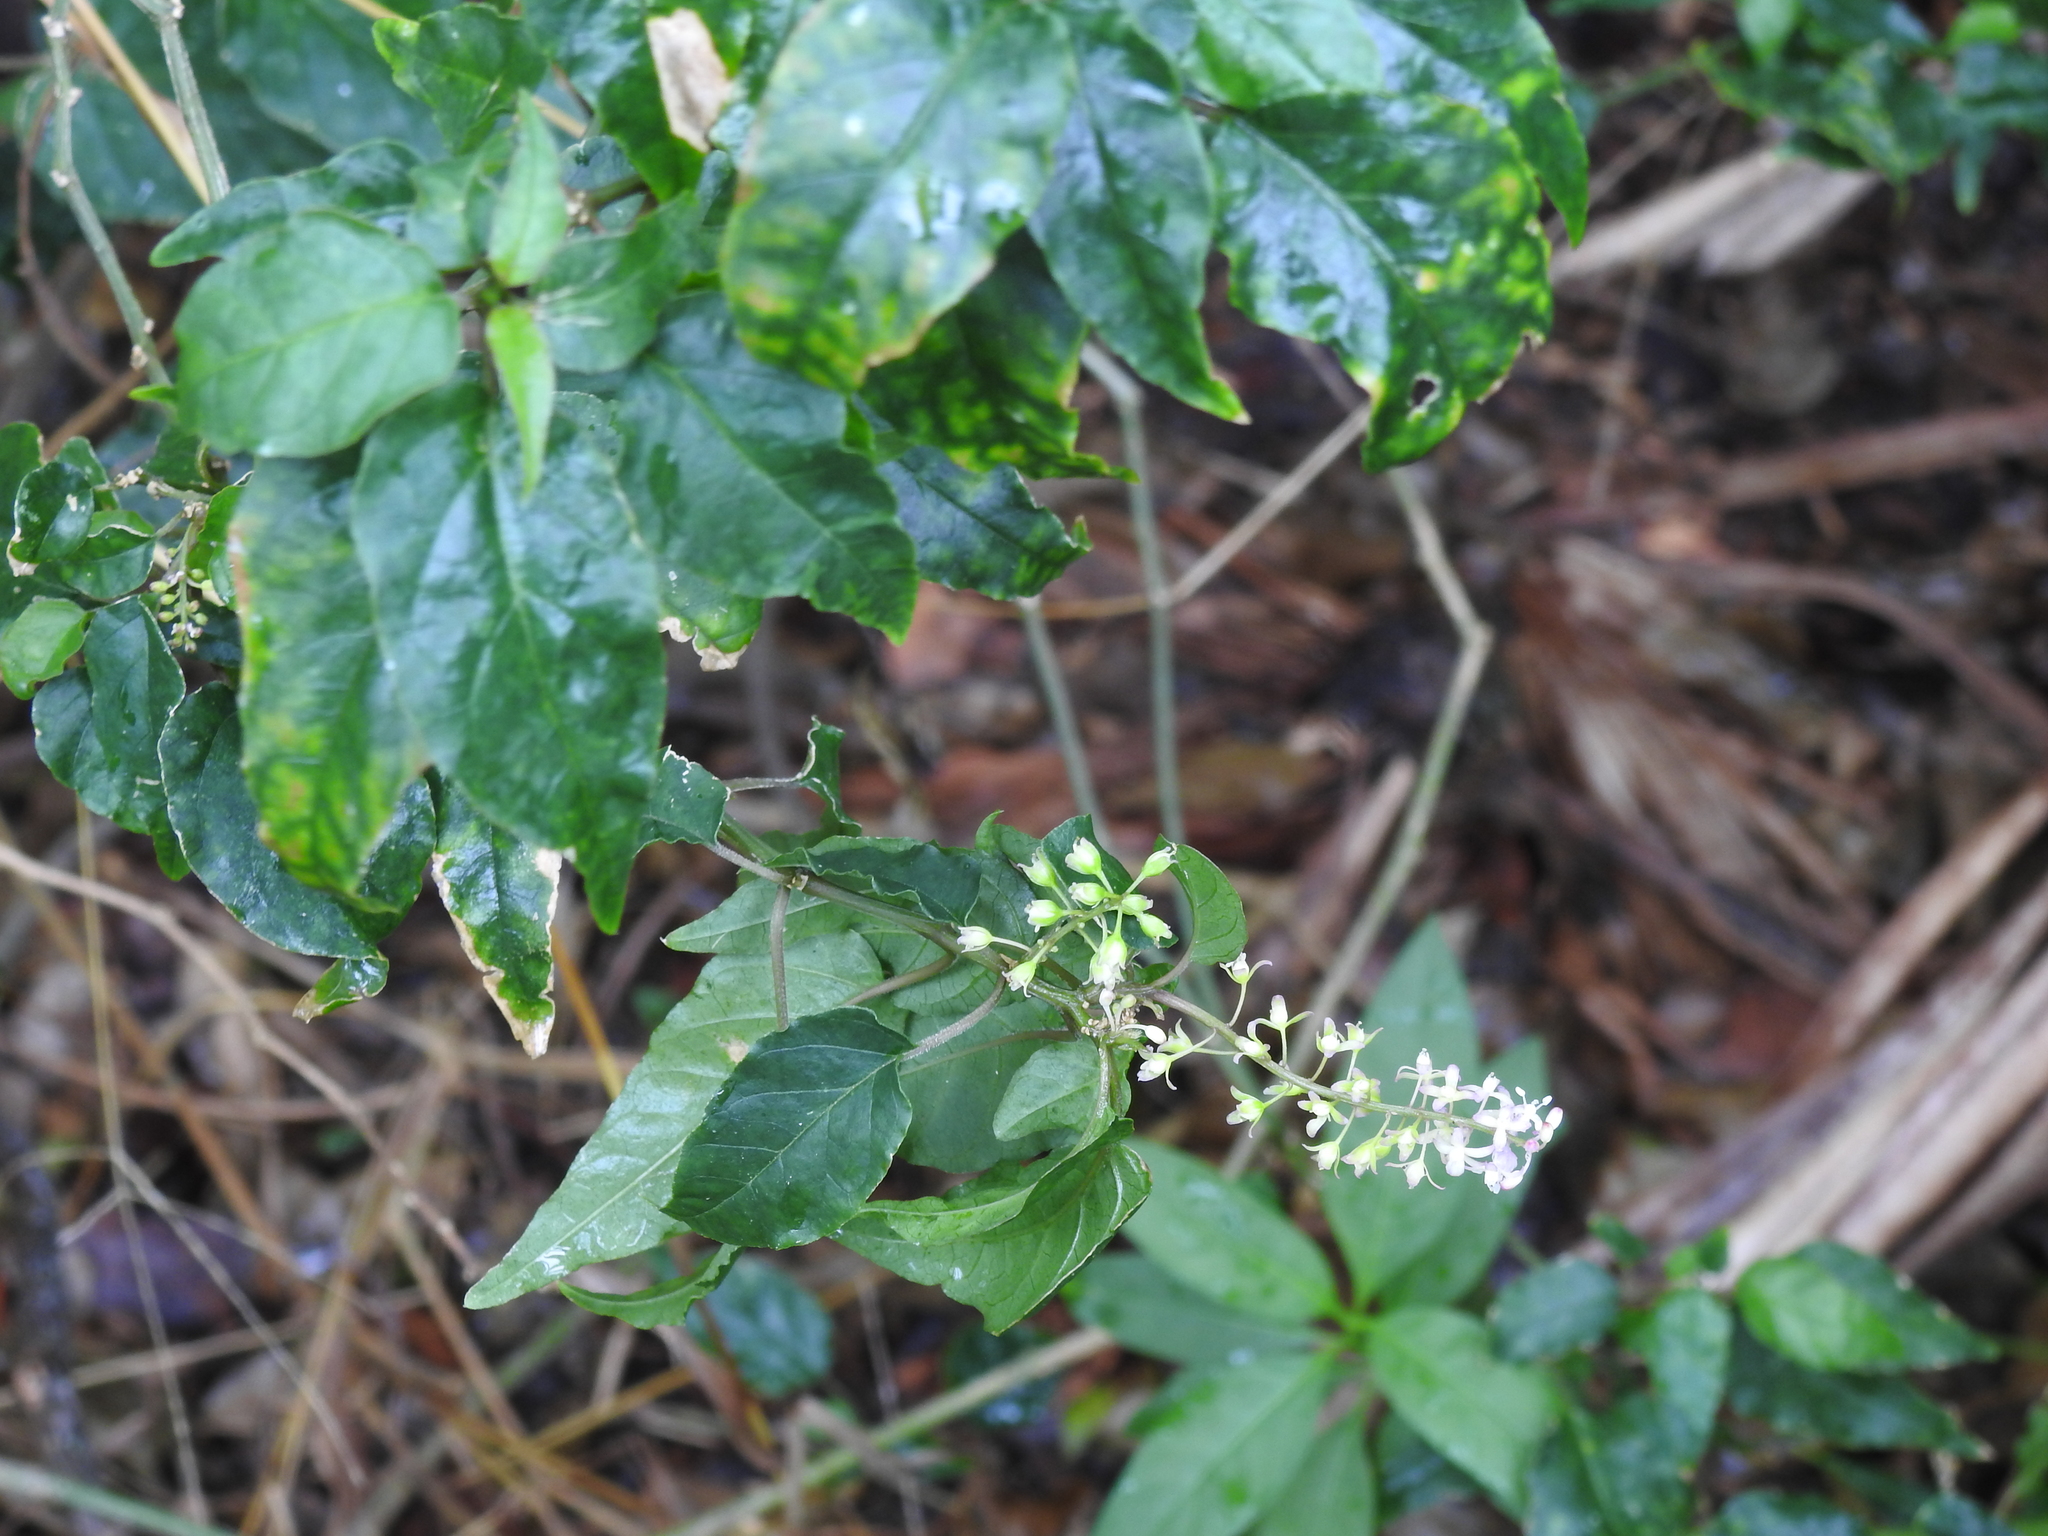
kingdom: Plantae
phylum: Tracheophyta
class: Magnoliopsida
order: Caryophyllales
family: Phytolaccaceae
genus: Rivina
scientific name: Rivina humilis
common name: Rougeplant
